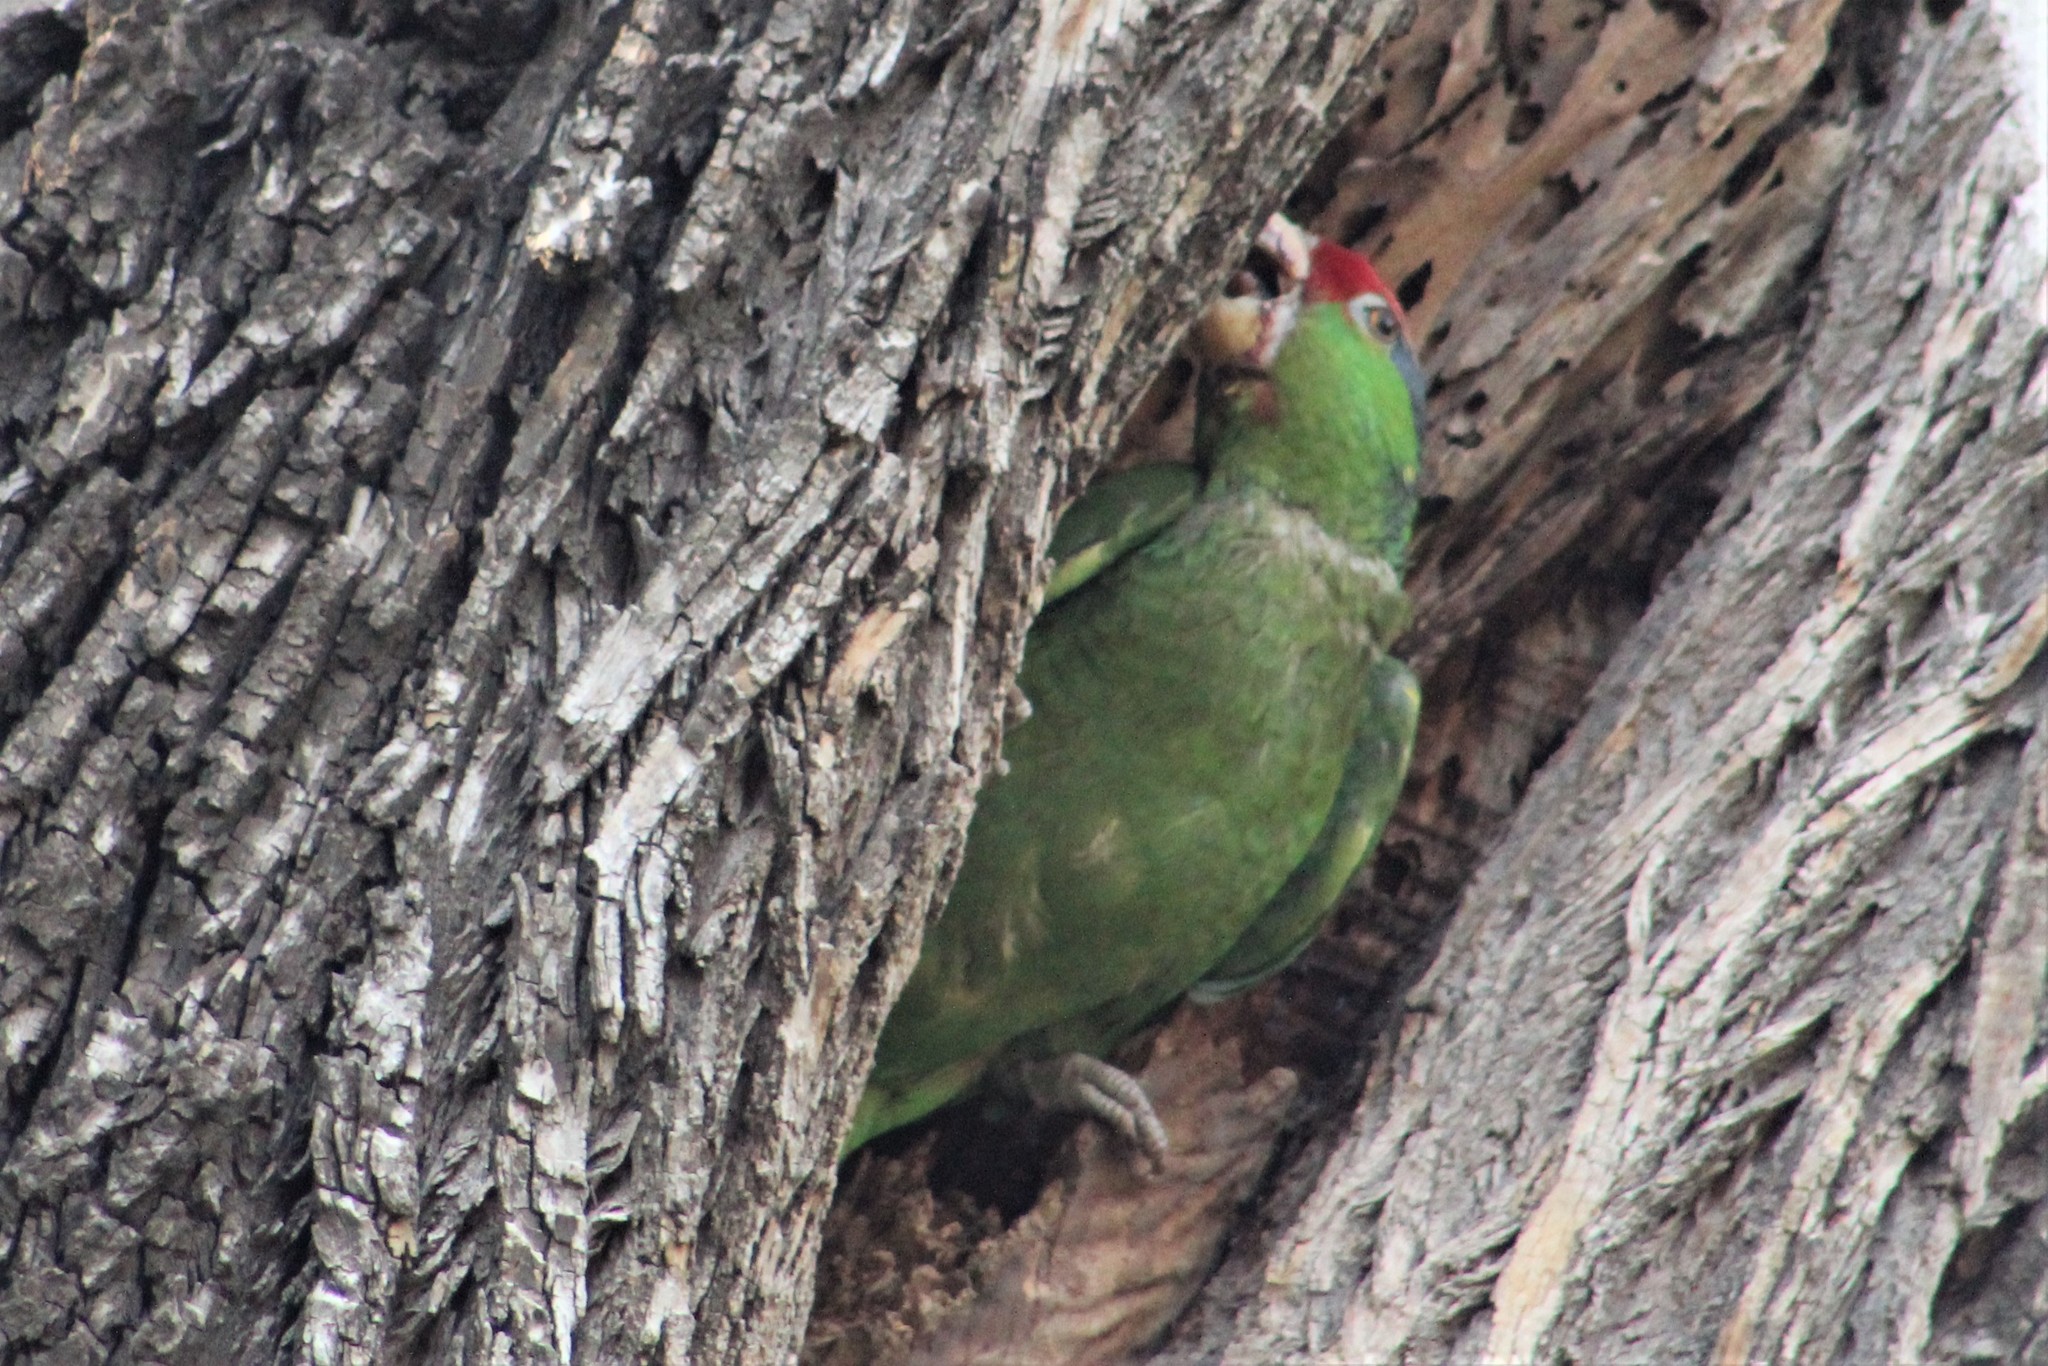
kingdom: Animalia
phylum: Chordata
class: Aves
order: Psittaciformes
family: Psittacidae
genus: Amazona
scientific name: Amazona viridigenalis
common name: Red-crowned amazon
